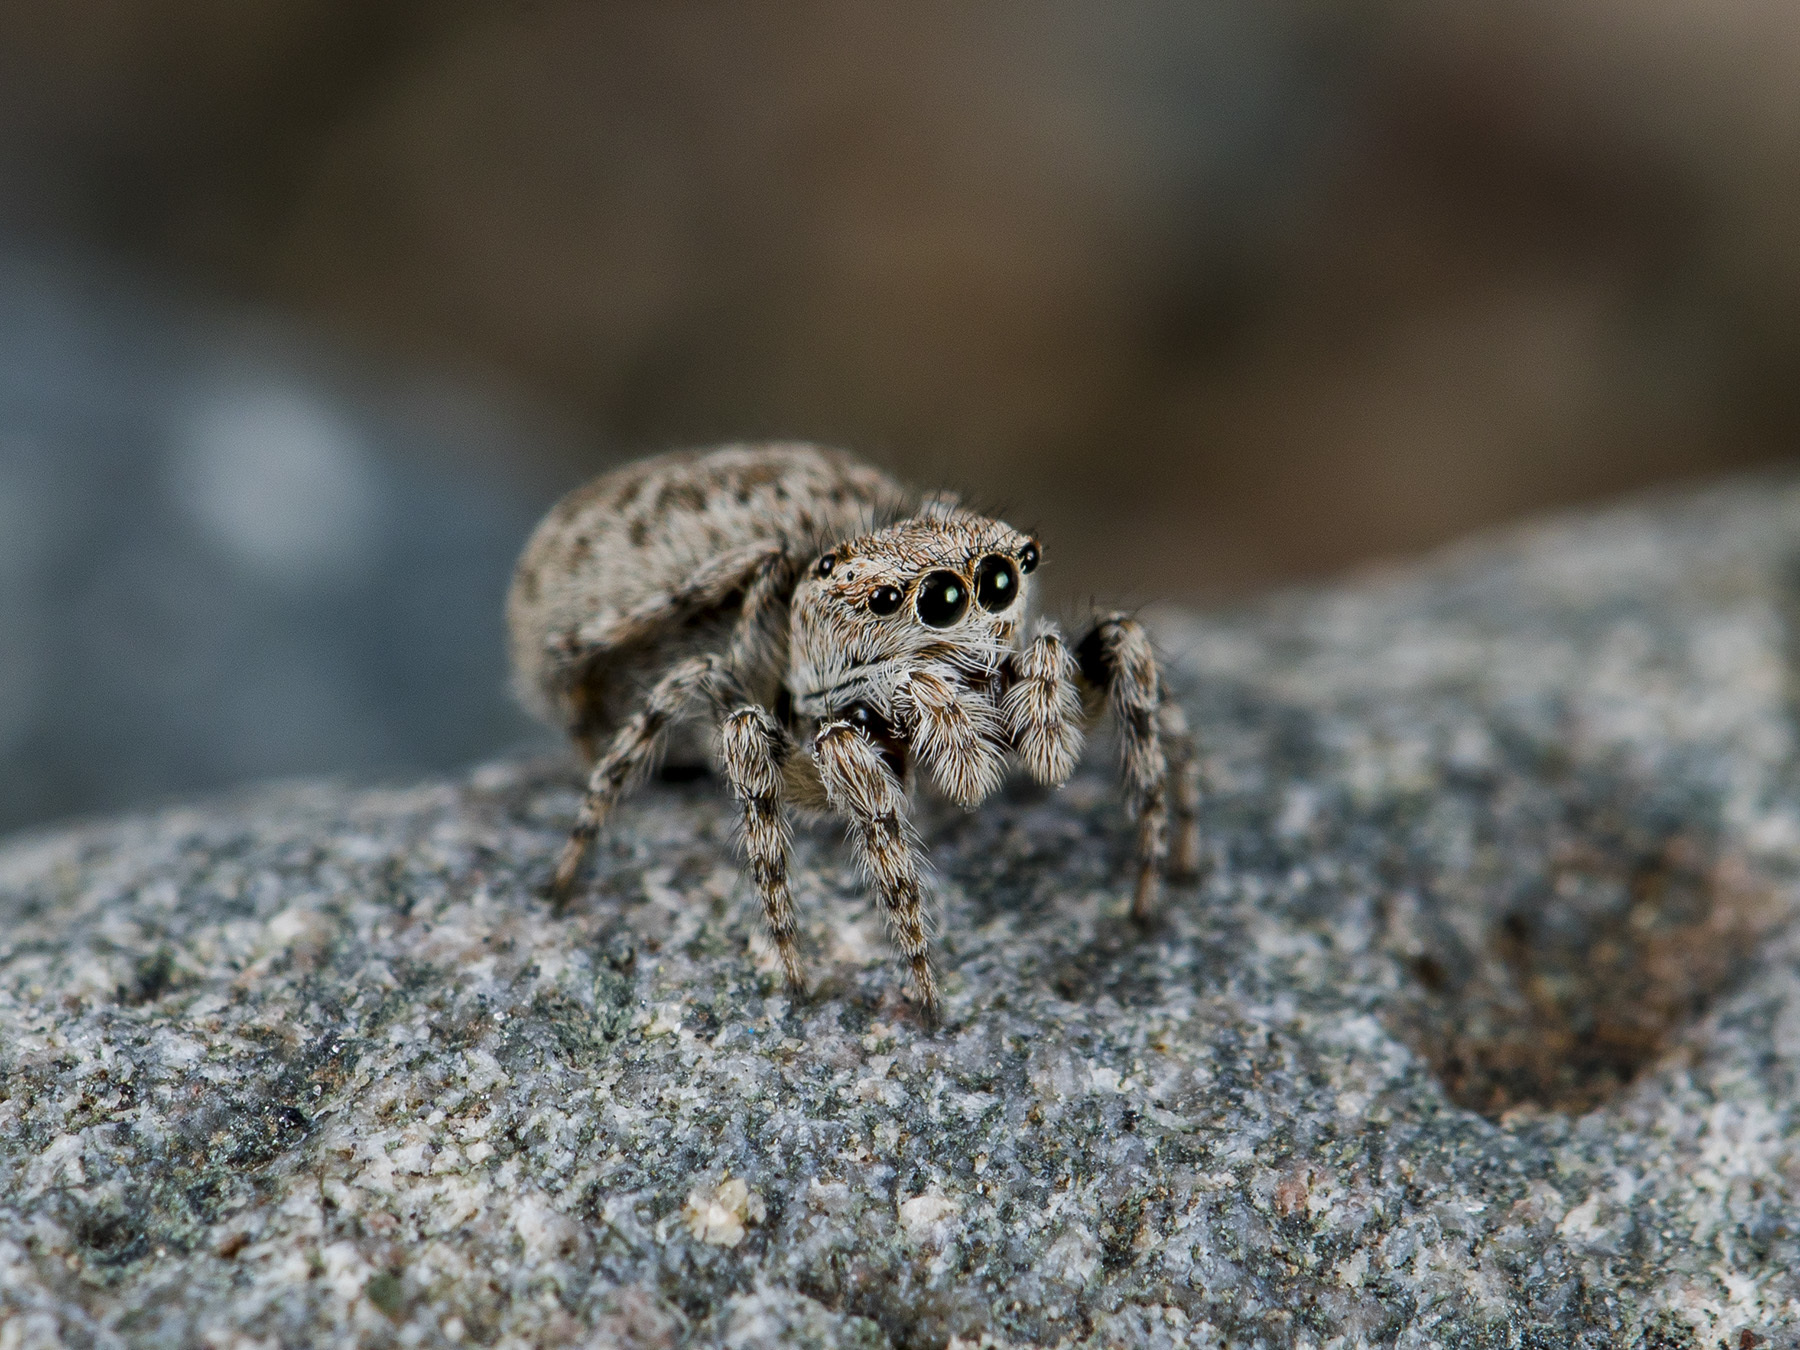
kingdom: Animalia
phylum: Arthropoda
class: Arachnida
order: Araneae
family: Salticidae
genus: Attulus
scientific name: Attulus avocator
